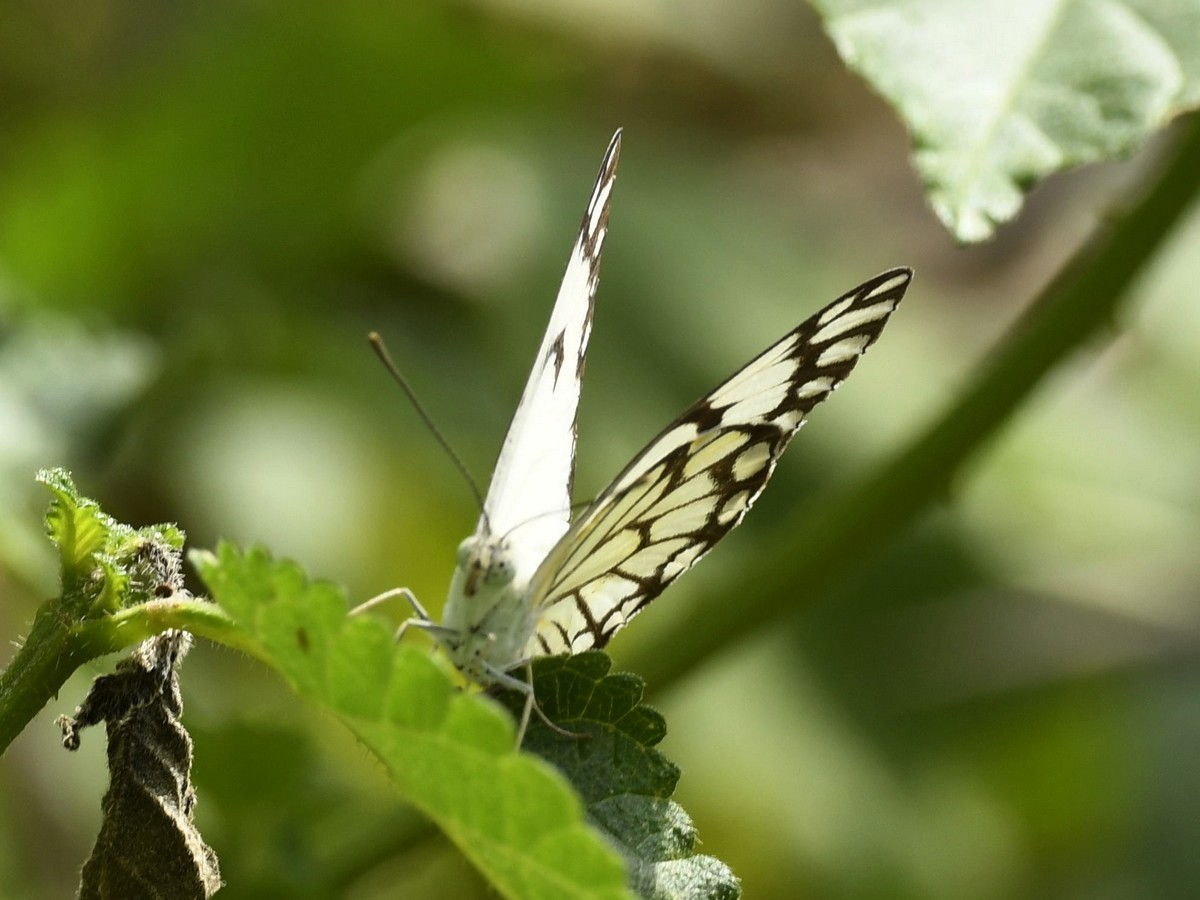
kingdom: Animalia
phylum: Arthropoda
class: Insecta
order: Lepidoptera
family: Pieridae
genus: Belenois
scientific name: Belenois aurota
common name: Brown-veined white
